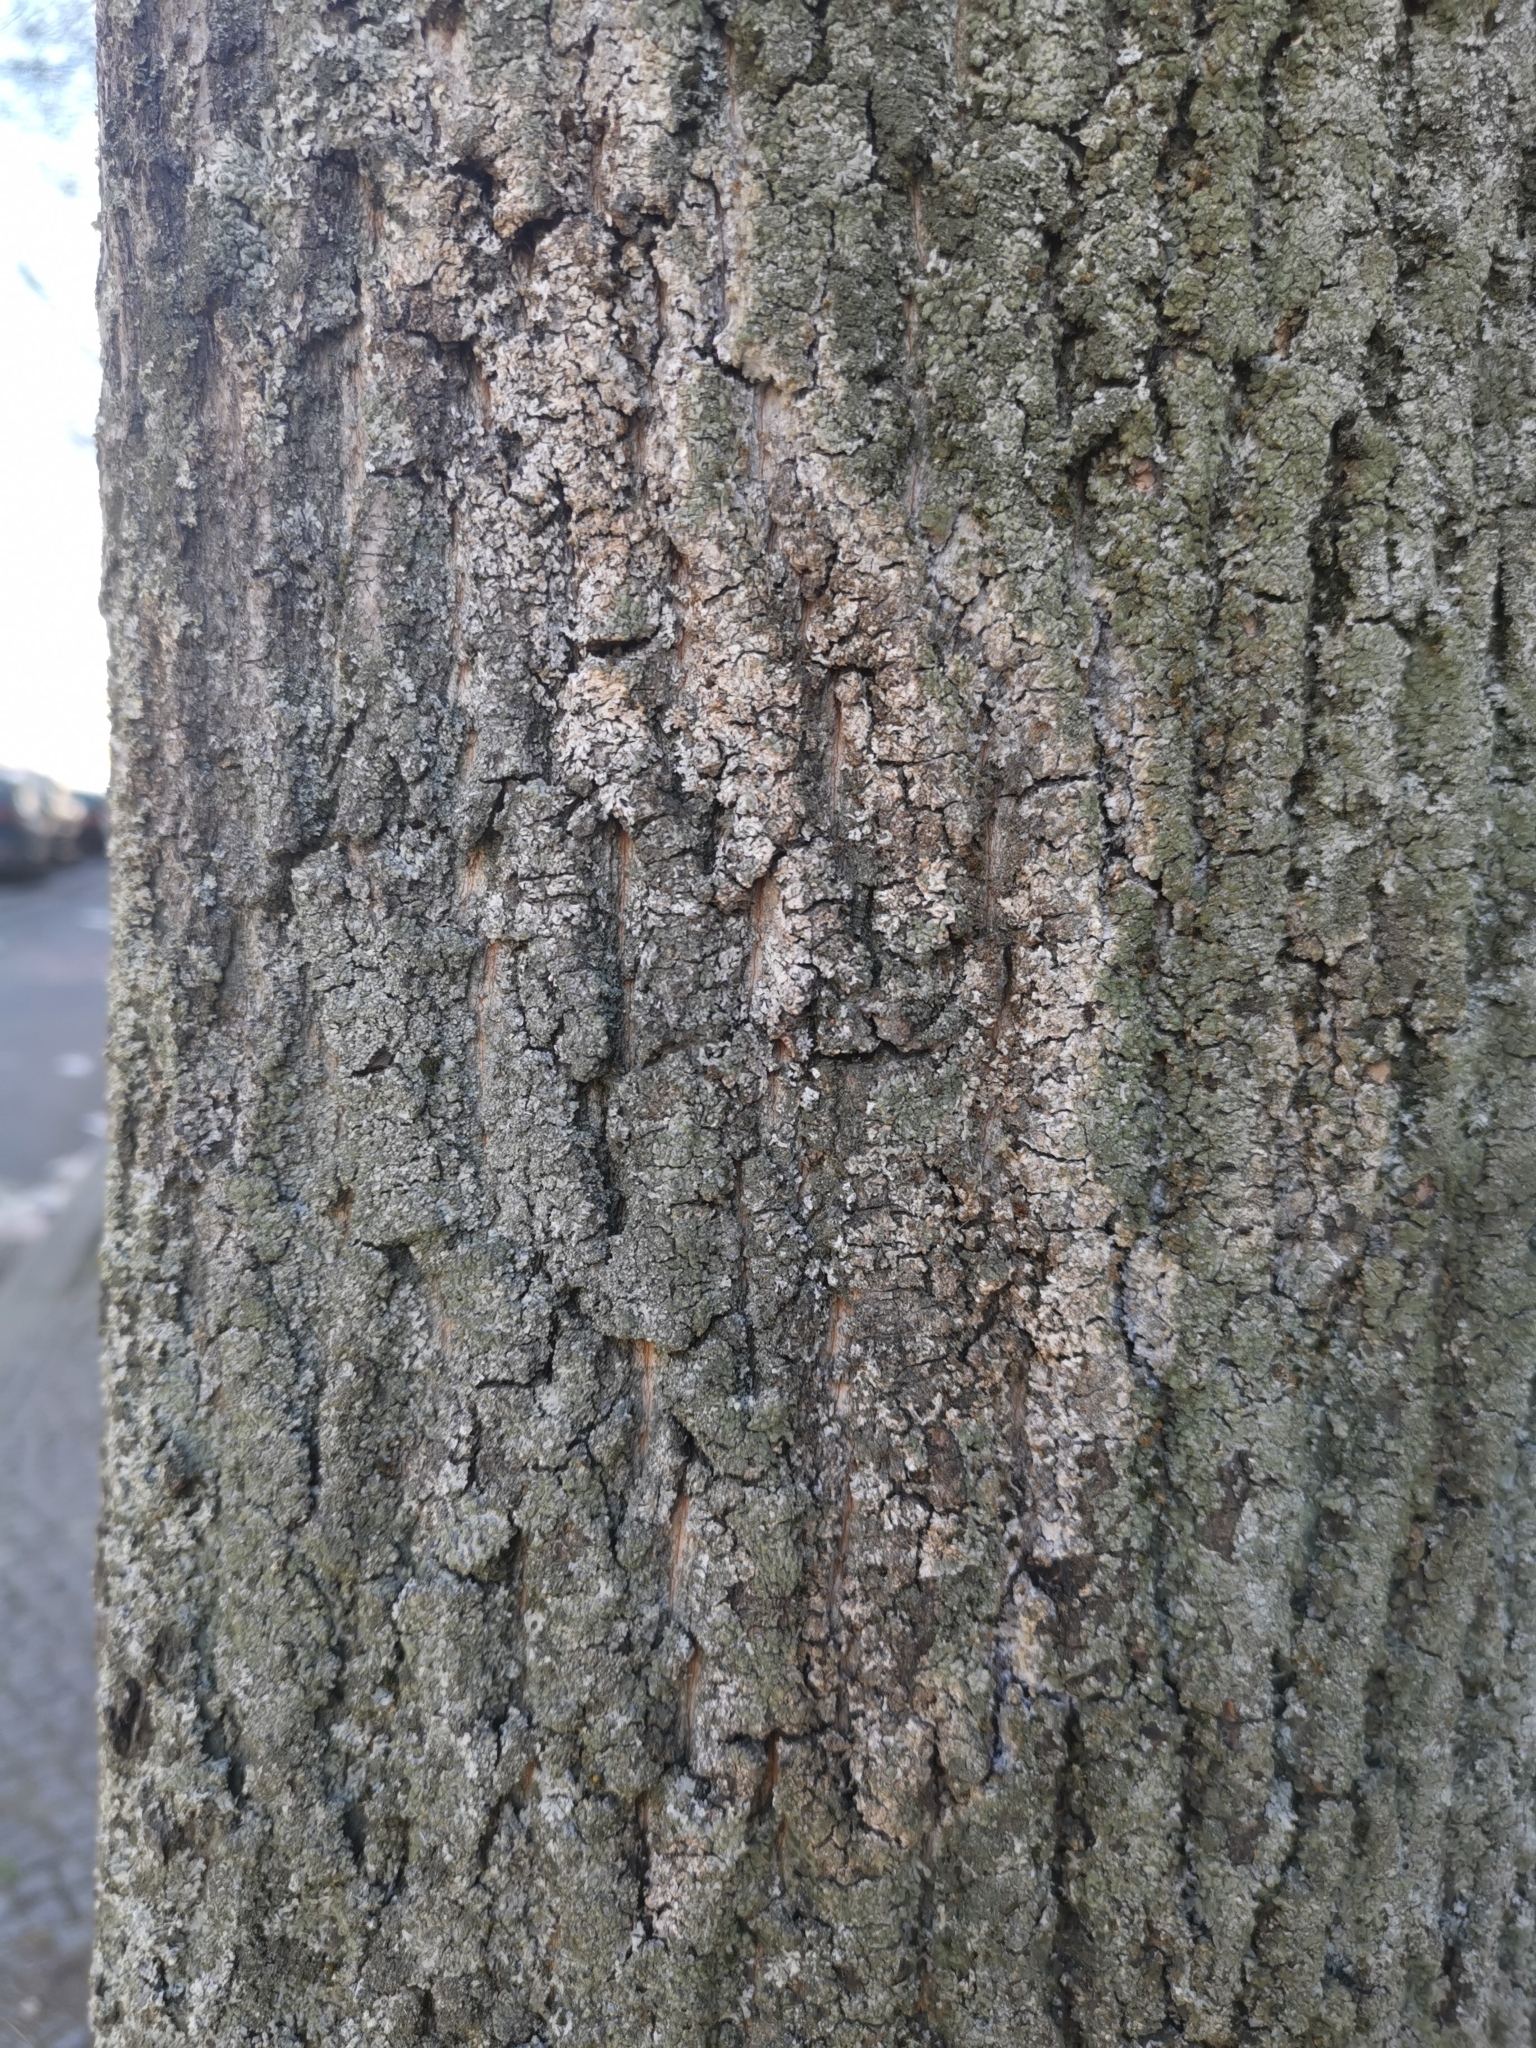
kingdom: Fungi
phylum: Basidiomycota
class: Agaricomycetes
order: Atheliales
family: Atheliaceae
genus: Athelia
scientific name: Athelia arachnoidea
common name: Candelabra duster
